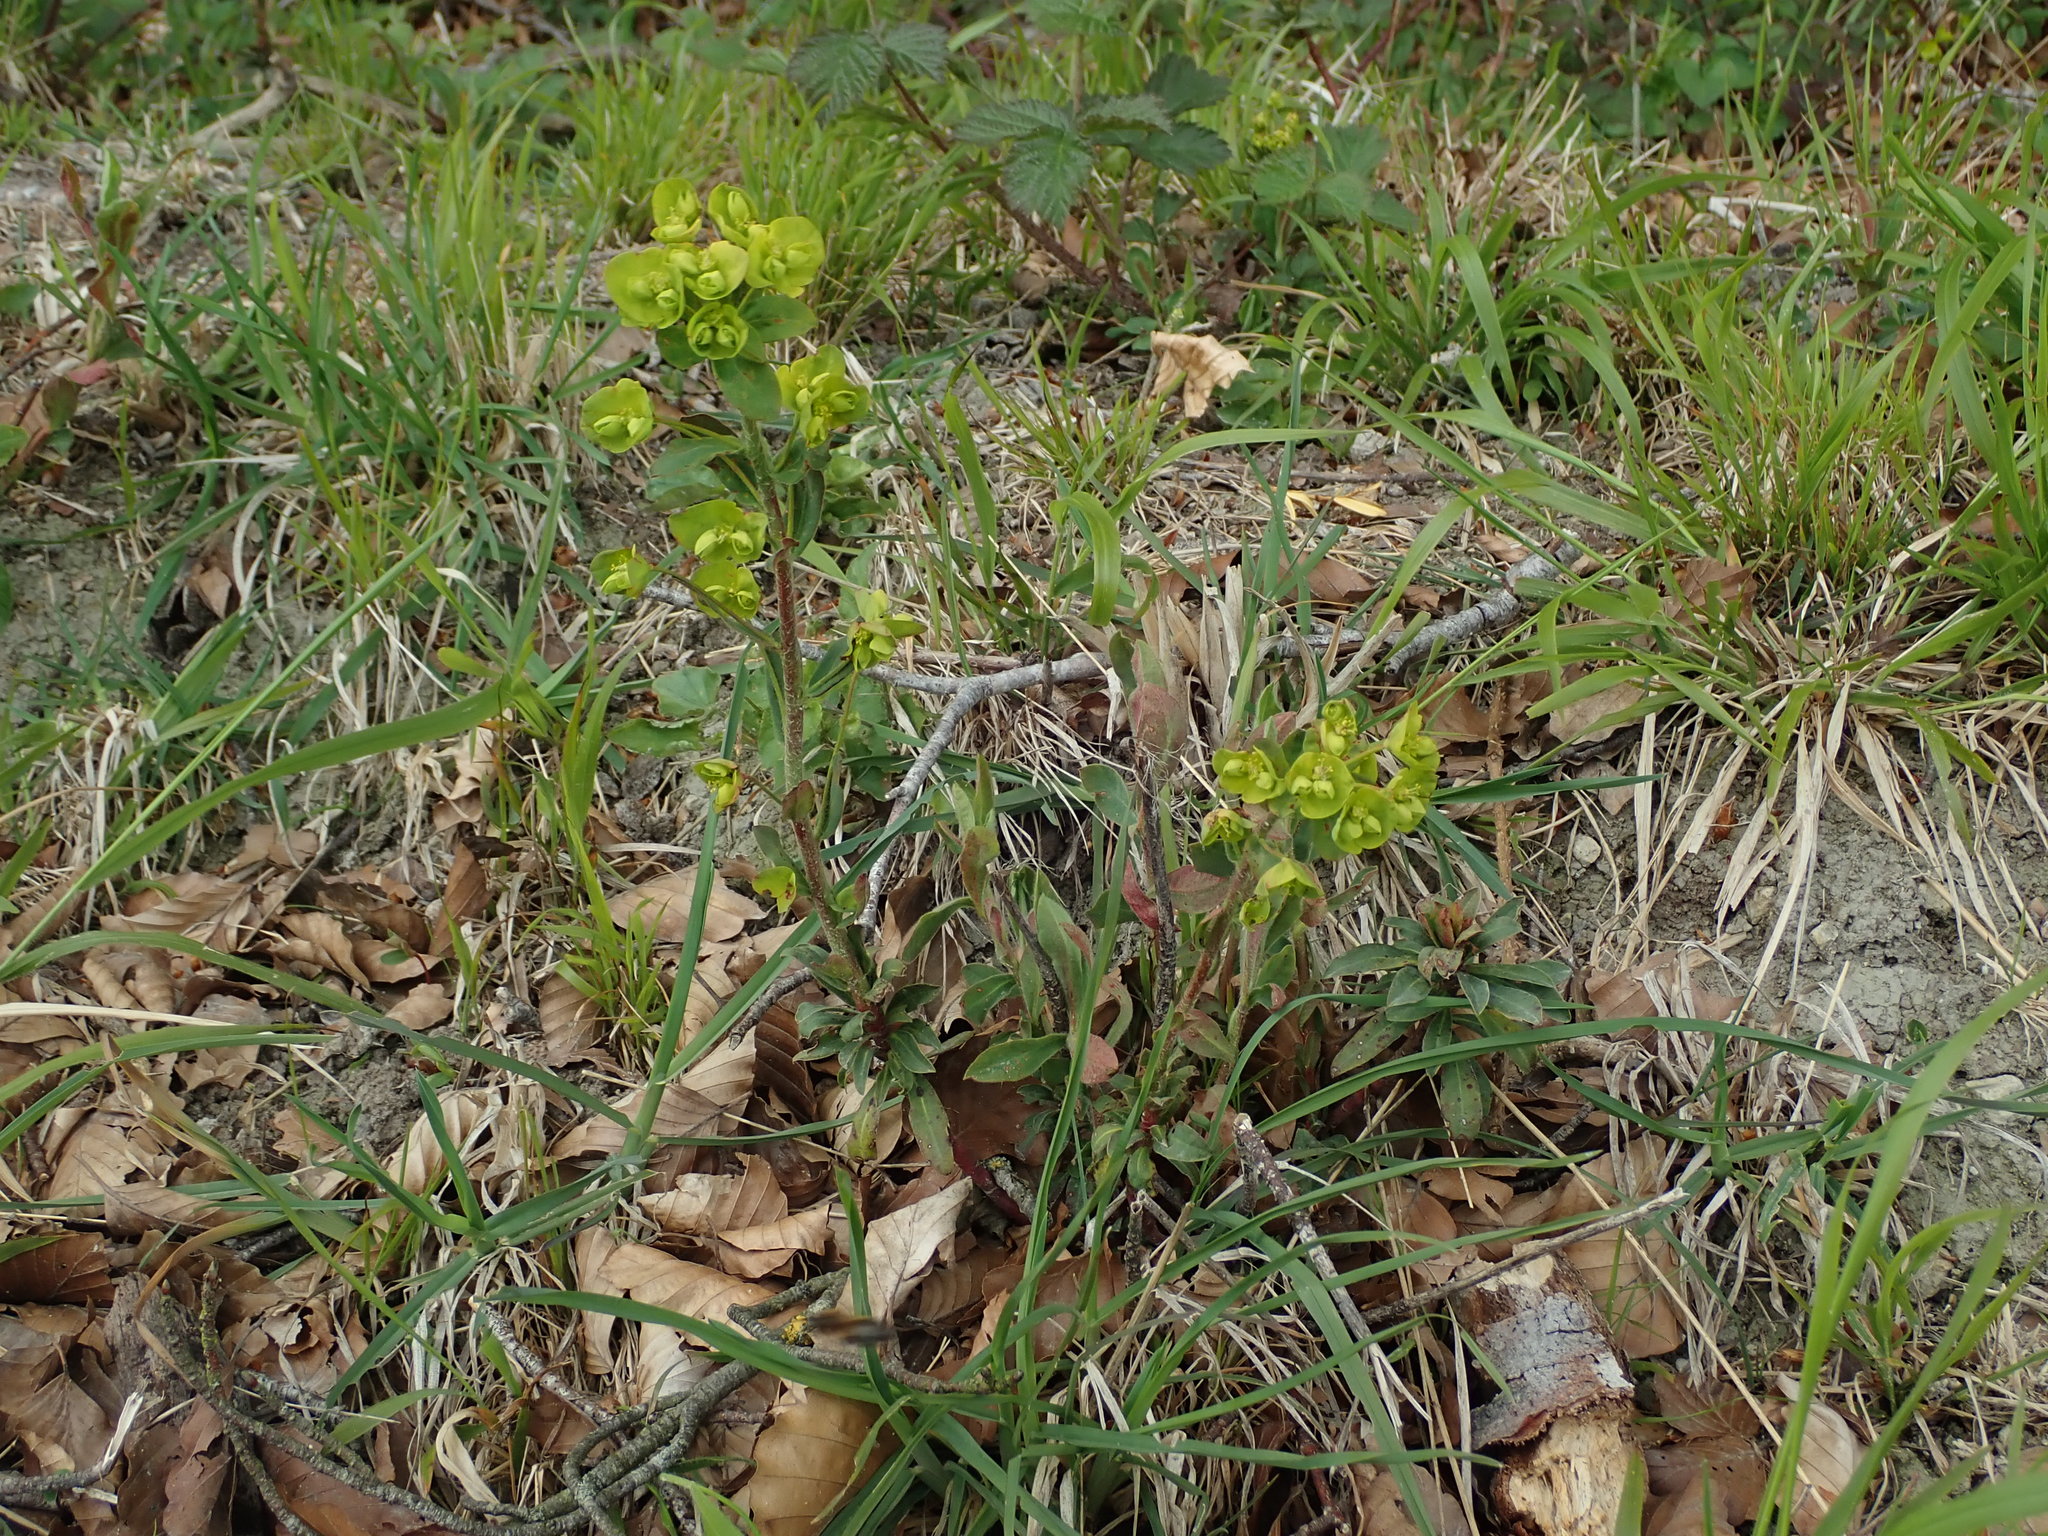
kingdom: Plantae
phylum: Tracheophyta
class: Magnoliopsida
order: Malpighiales
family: Euphorbiaceae
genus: Euphorbia
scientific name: Euphorbia amygdaloides
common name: Wood spurge
